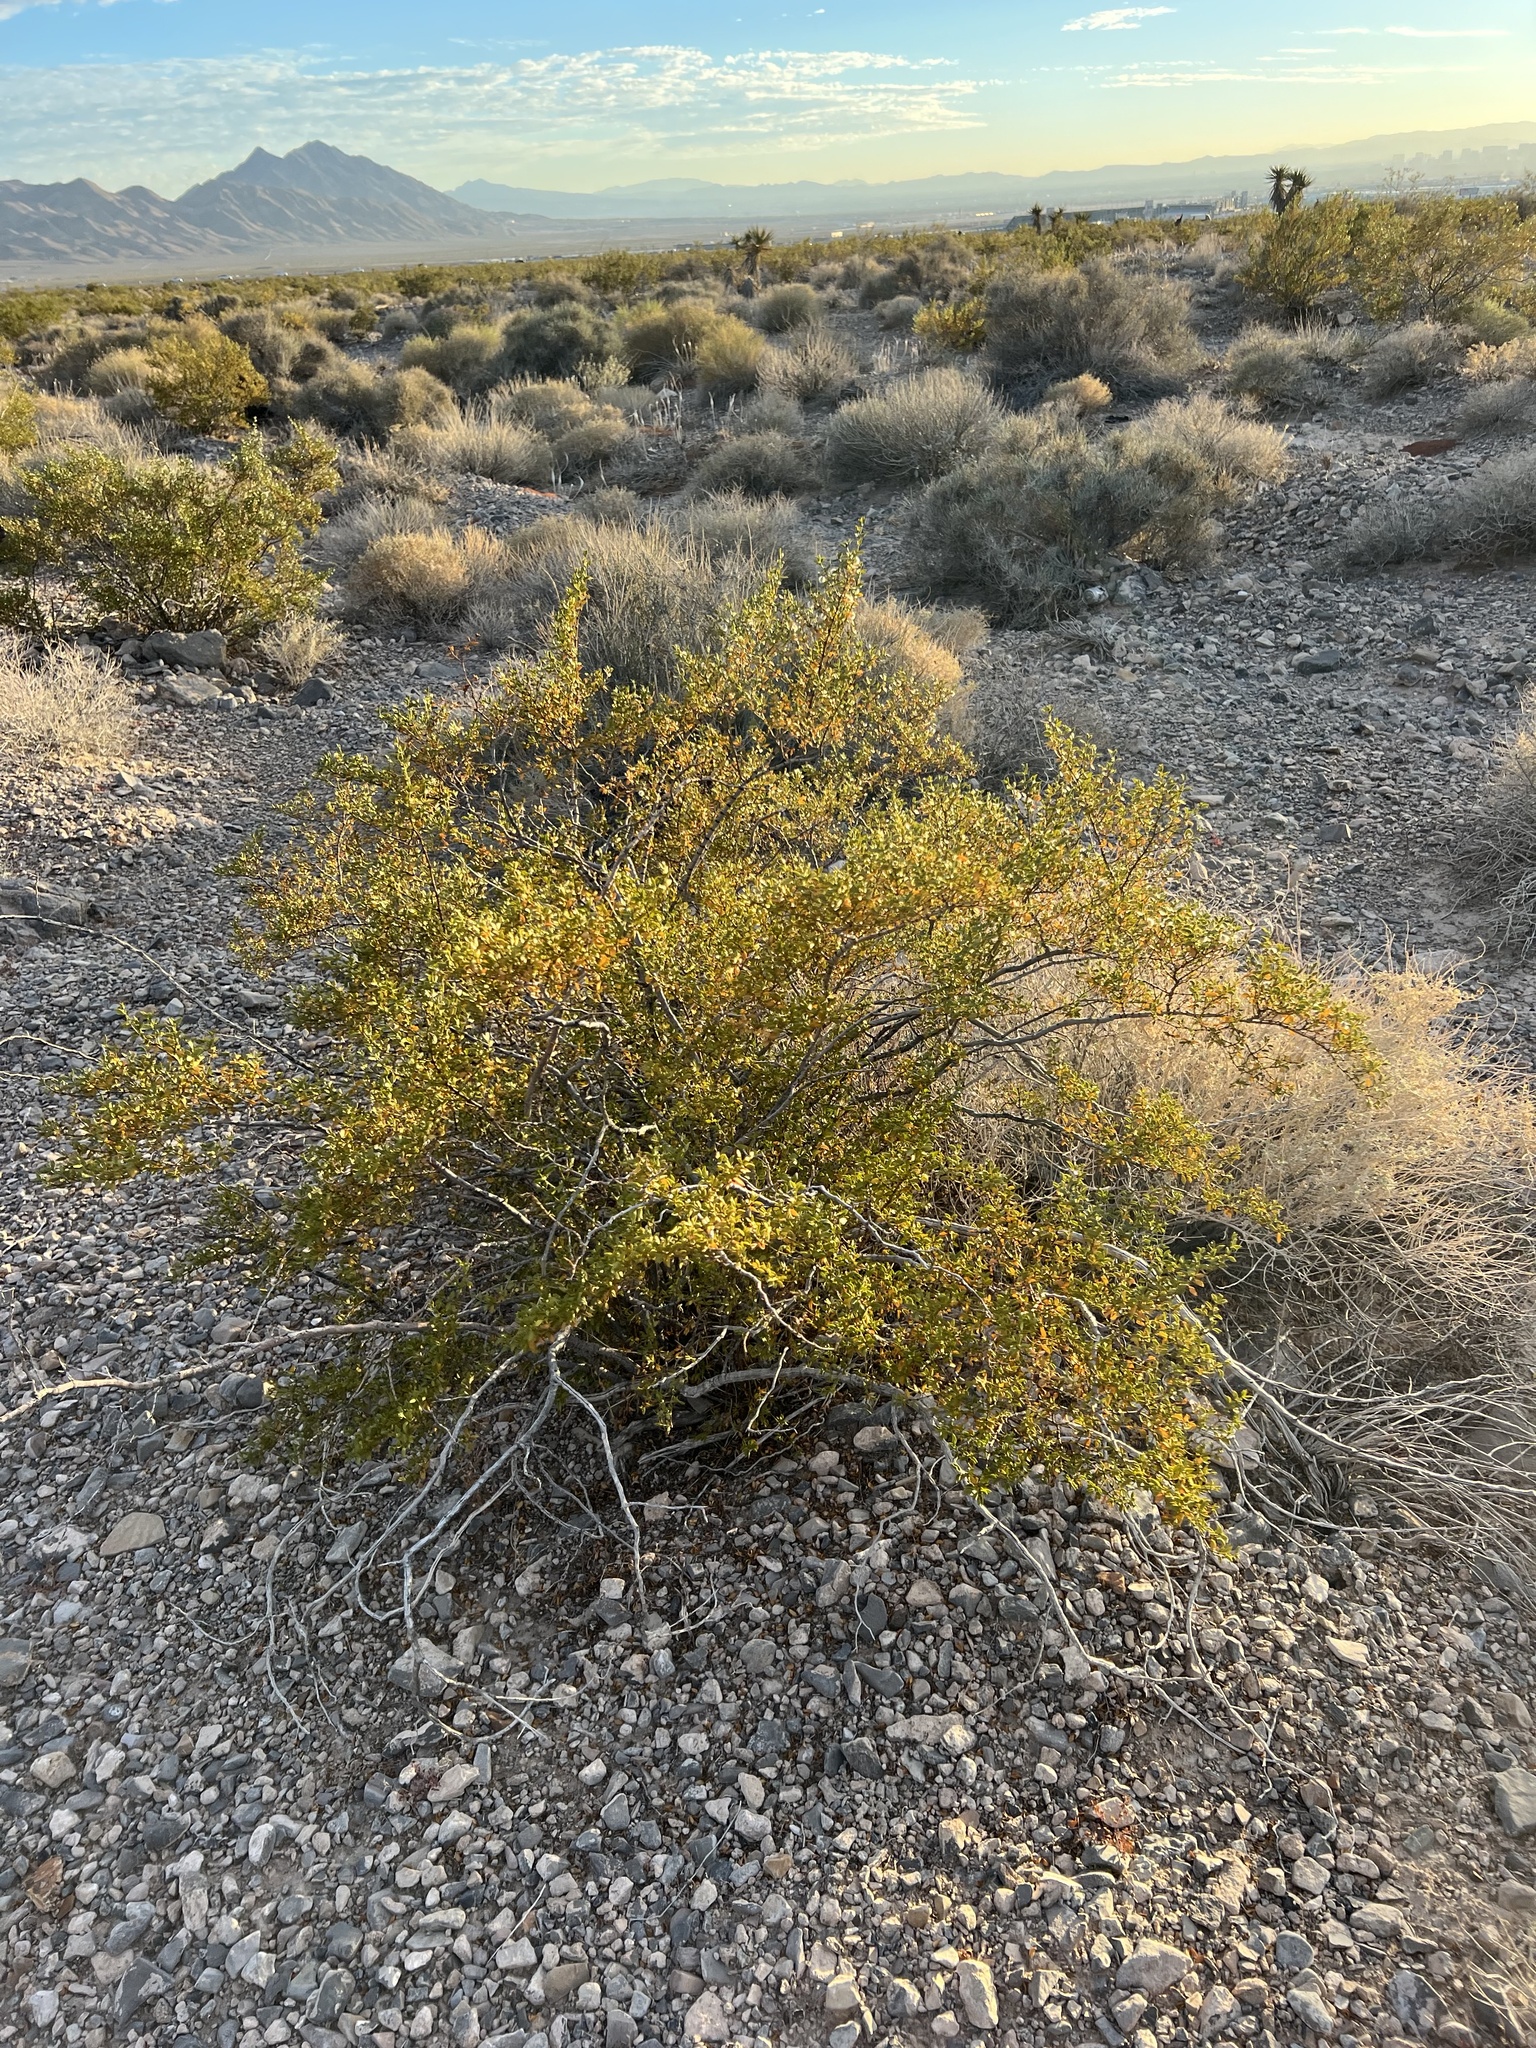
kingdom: Plantae
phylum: Tracheophyta
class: Magnoliopsida
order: Zygophyllales
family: Zygophyllaceae
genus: Larrea
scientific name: Larrea tridentata
